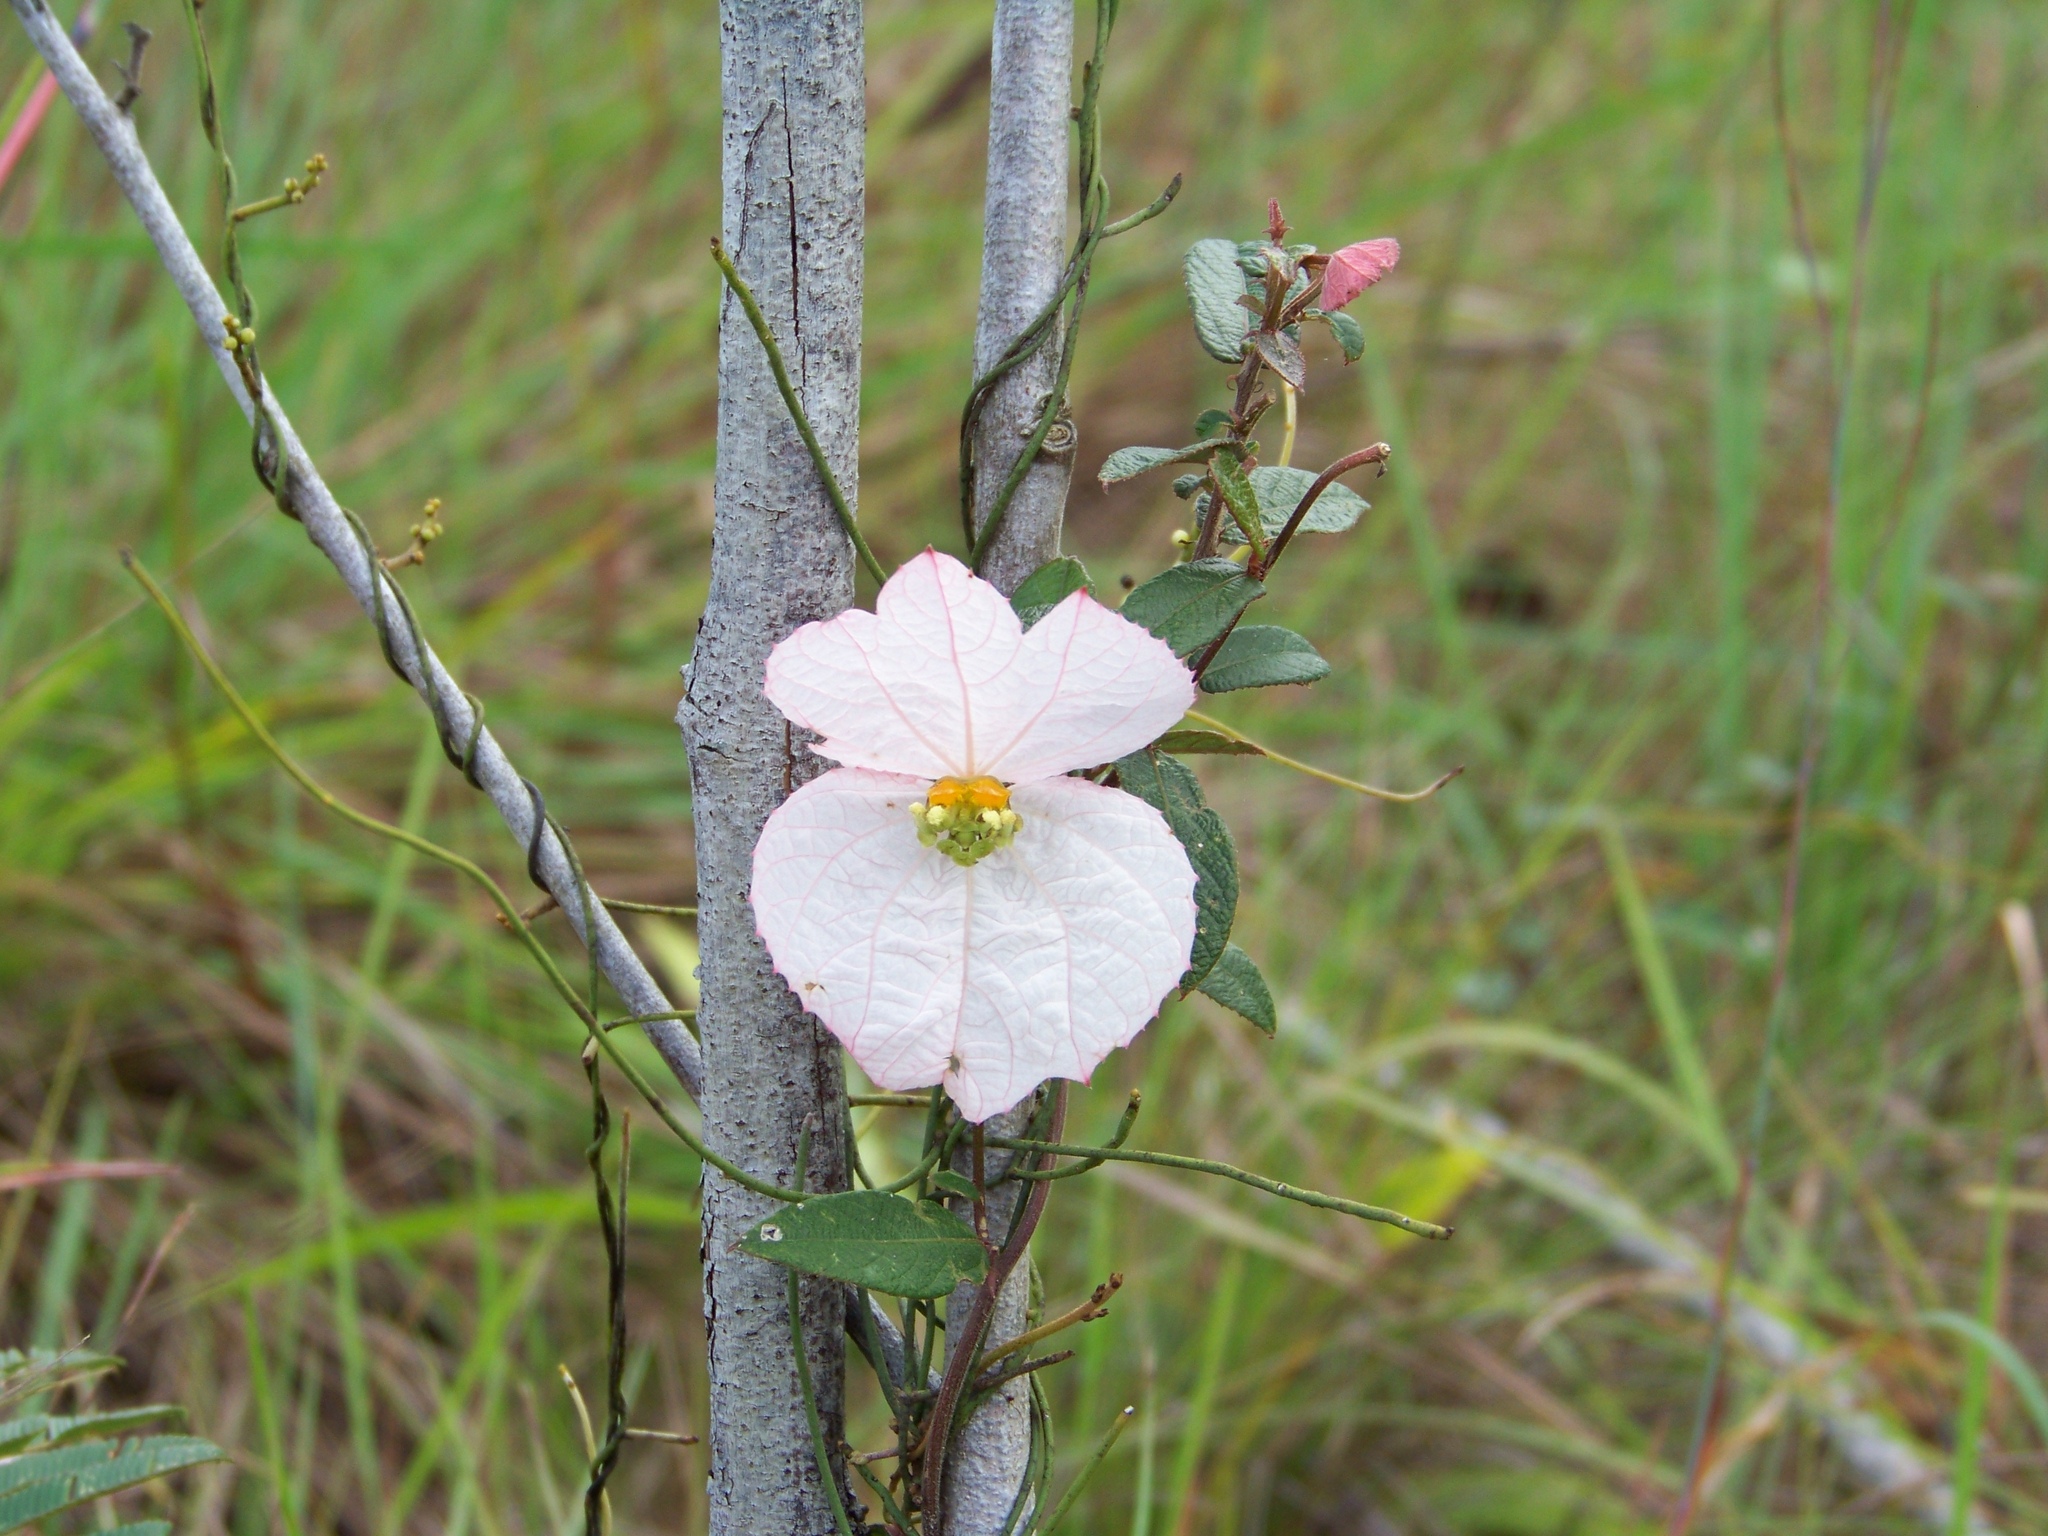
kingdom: Plantae
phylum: Tracheophyta
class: Magnoliopsida
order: Malpighiales
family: Euphorbiaceae
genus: Dalechampia
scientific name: Dalechampia schippii
